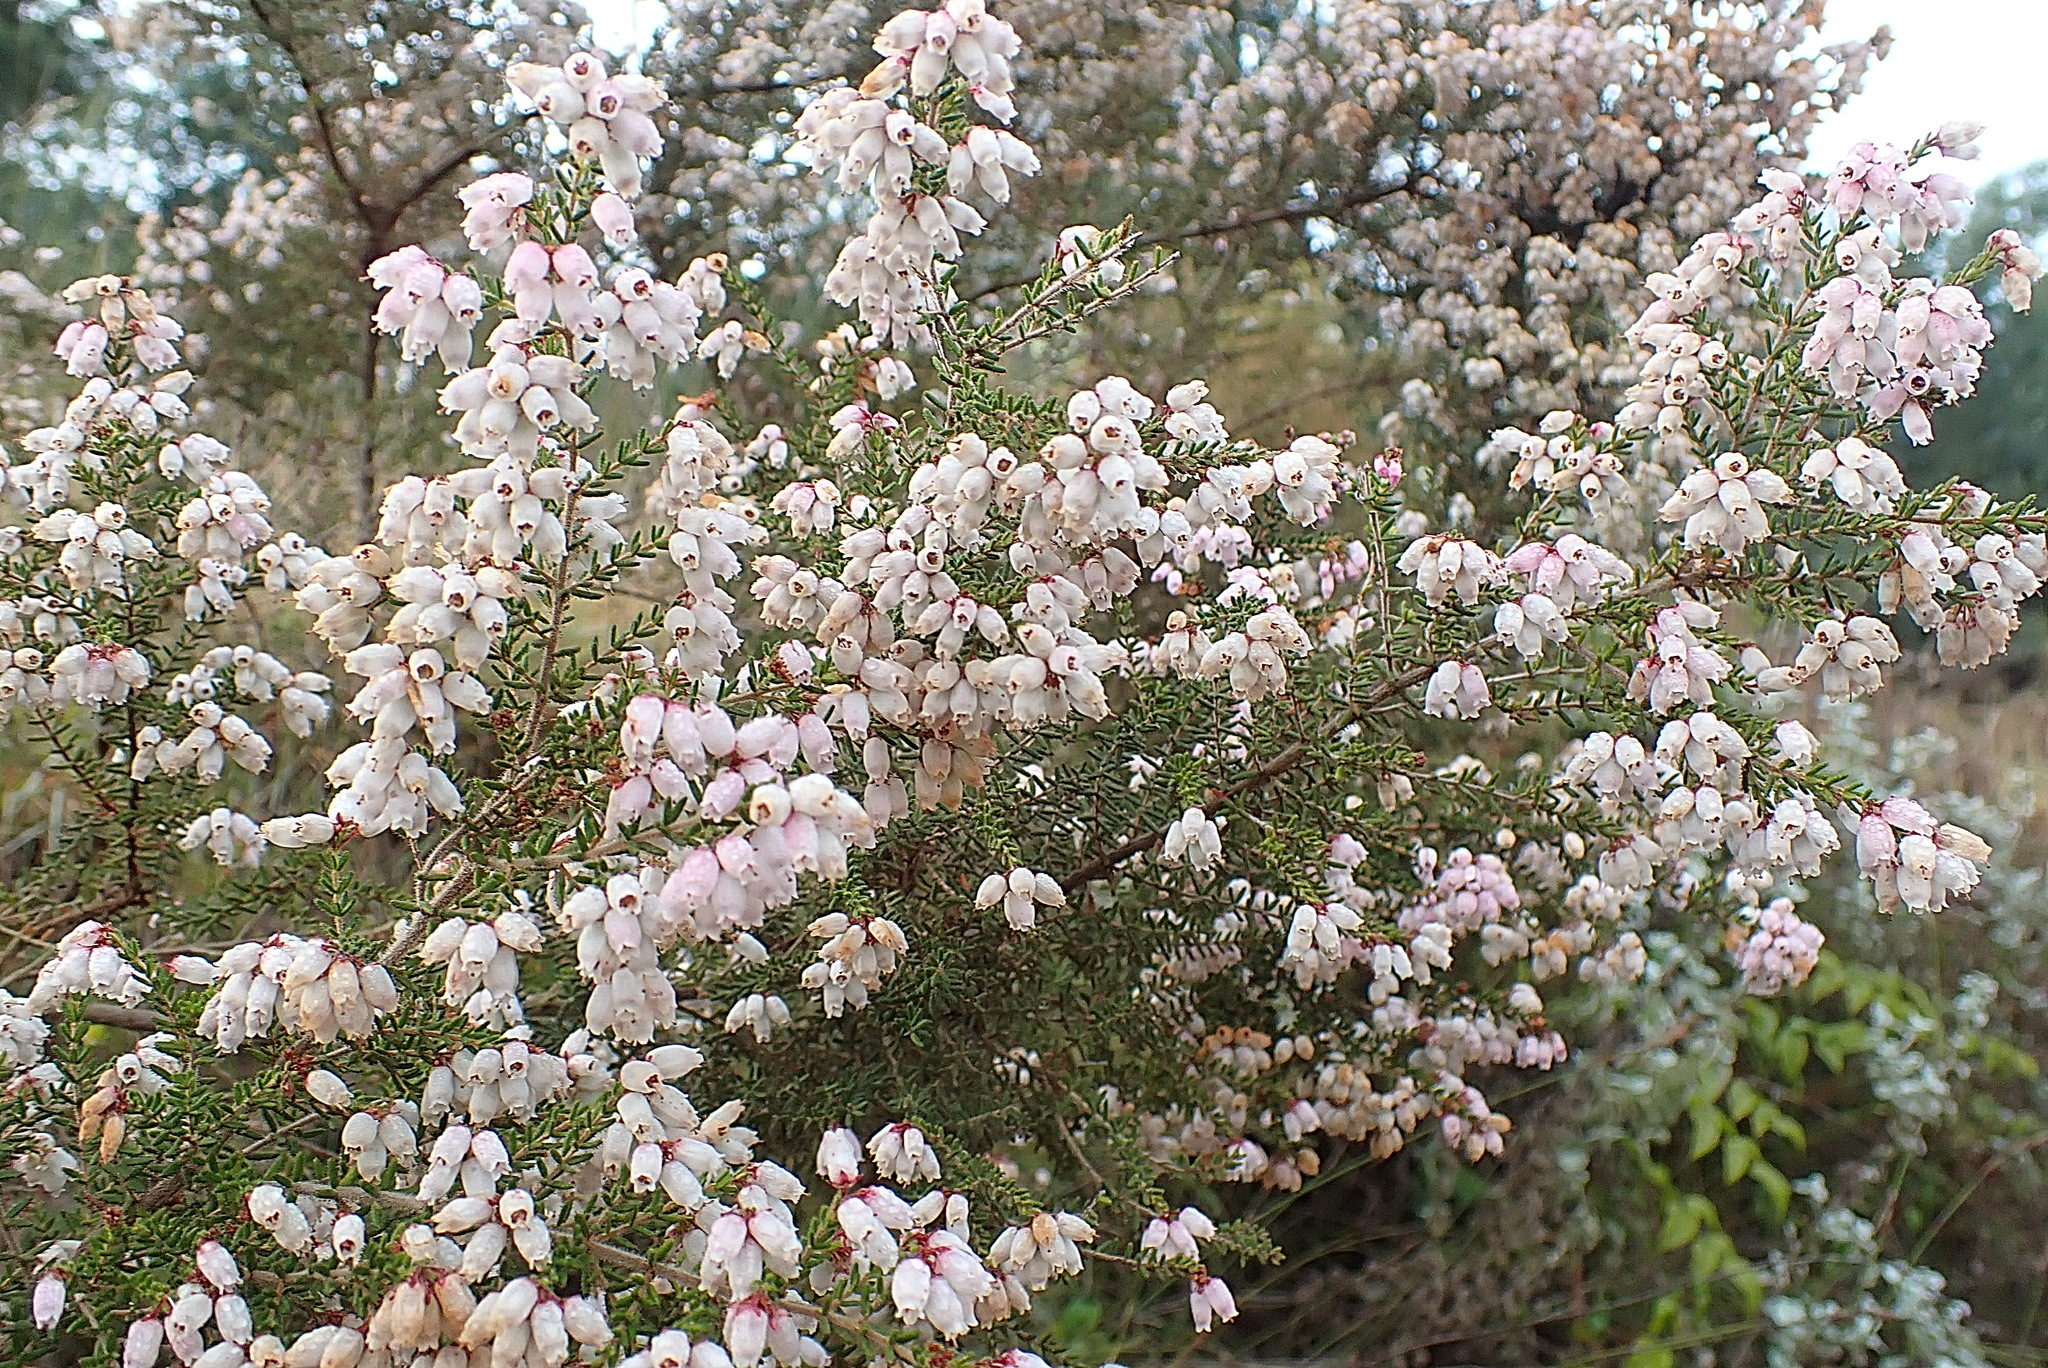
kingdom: Plantae
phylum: Tracheophyta
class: Magnoliopsida
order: Ericales
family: Ericaceae
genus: Erica
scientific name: Erica scabriuscula
